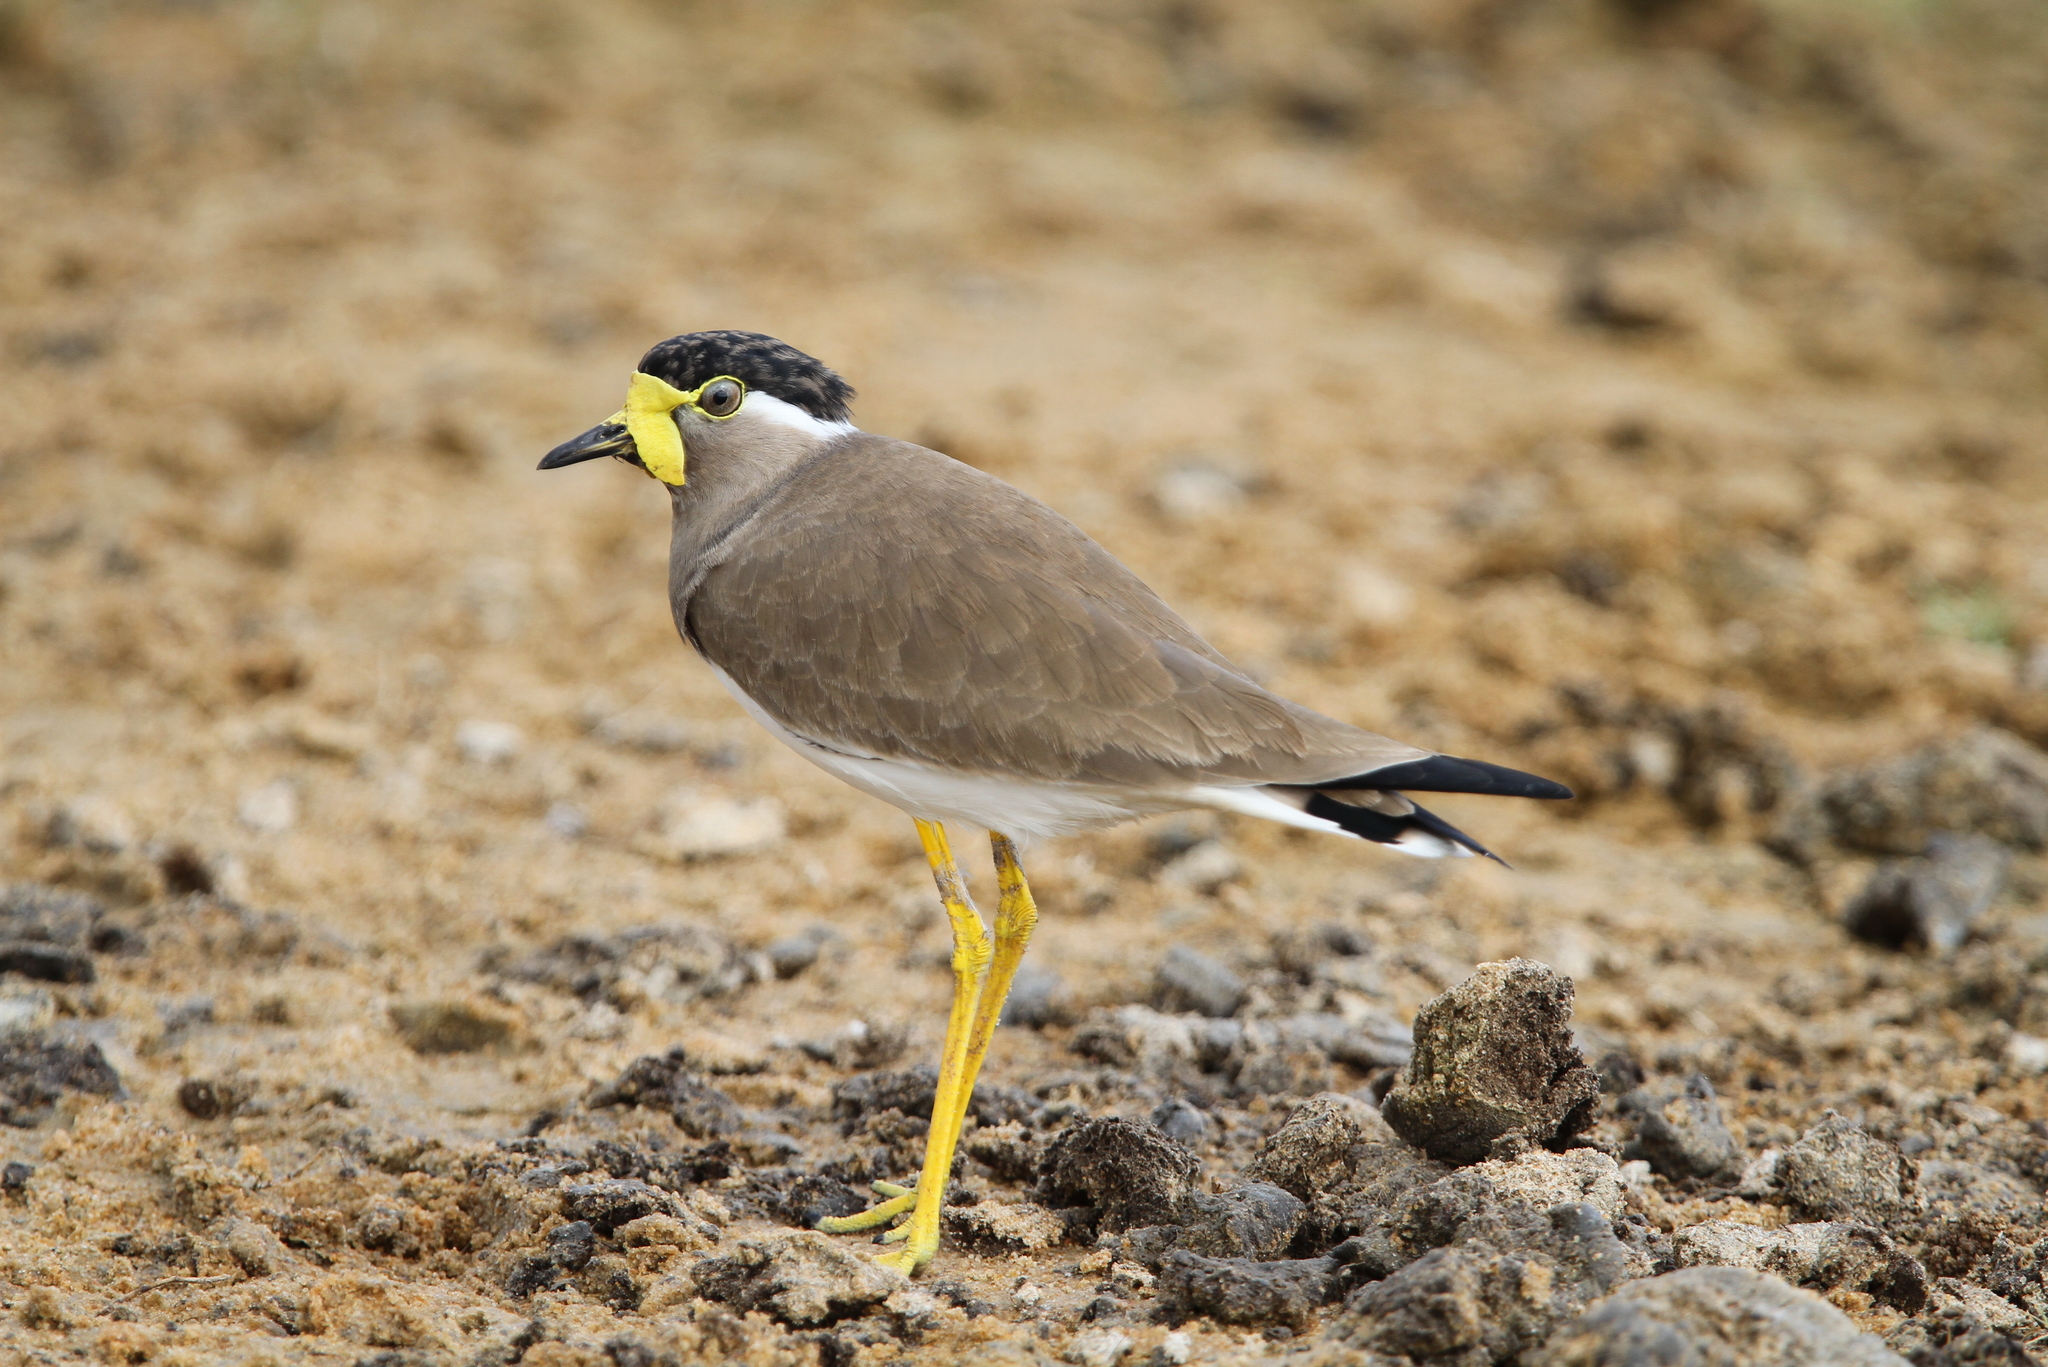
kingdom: Animalia
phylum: Chordata
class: Aves
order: Charadriiformes
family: Charadriidae
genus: Vanellus
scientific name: Vanellus malabaricus
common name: Yellow-wattled lapwing
